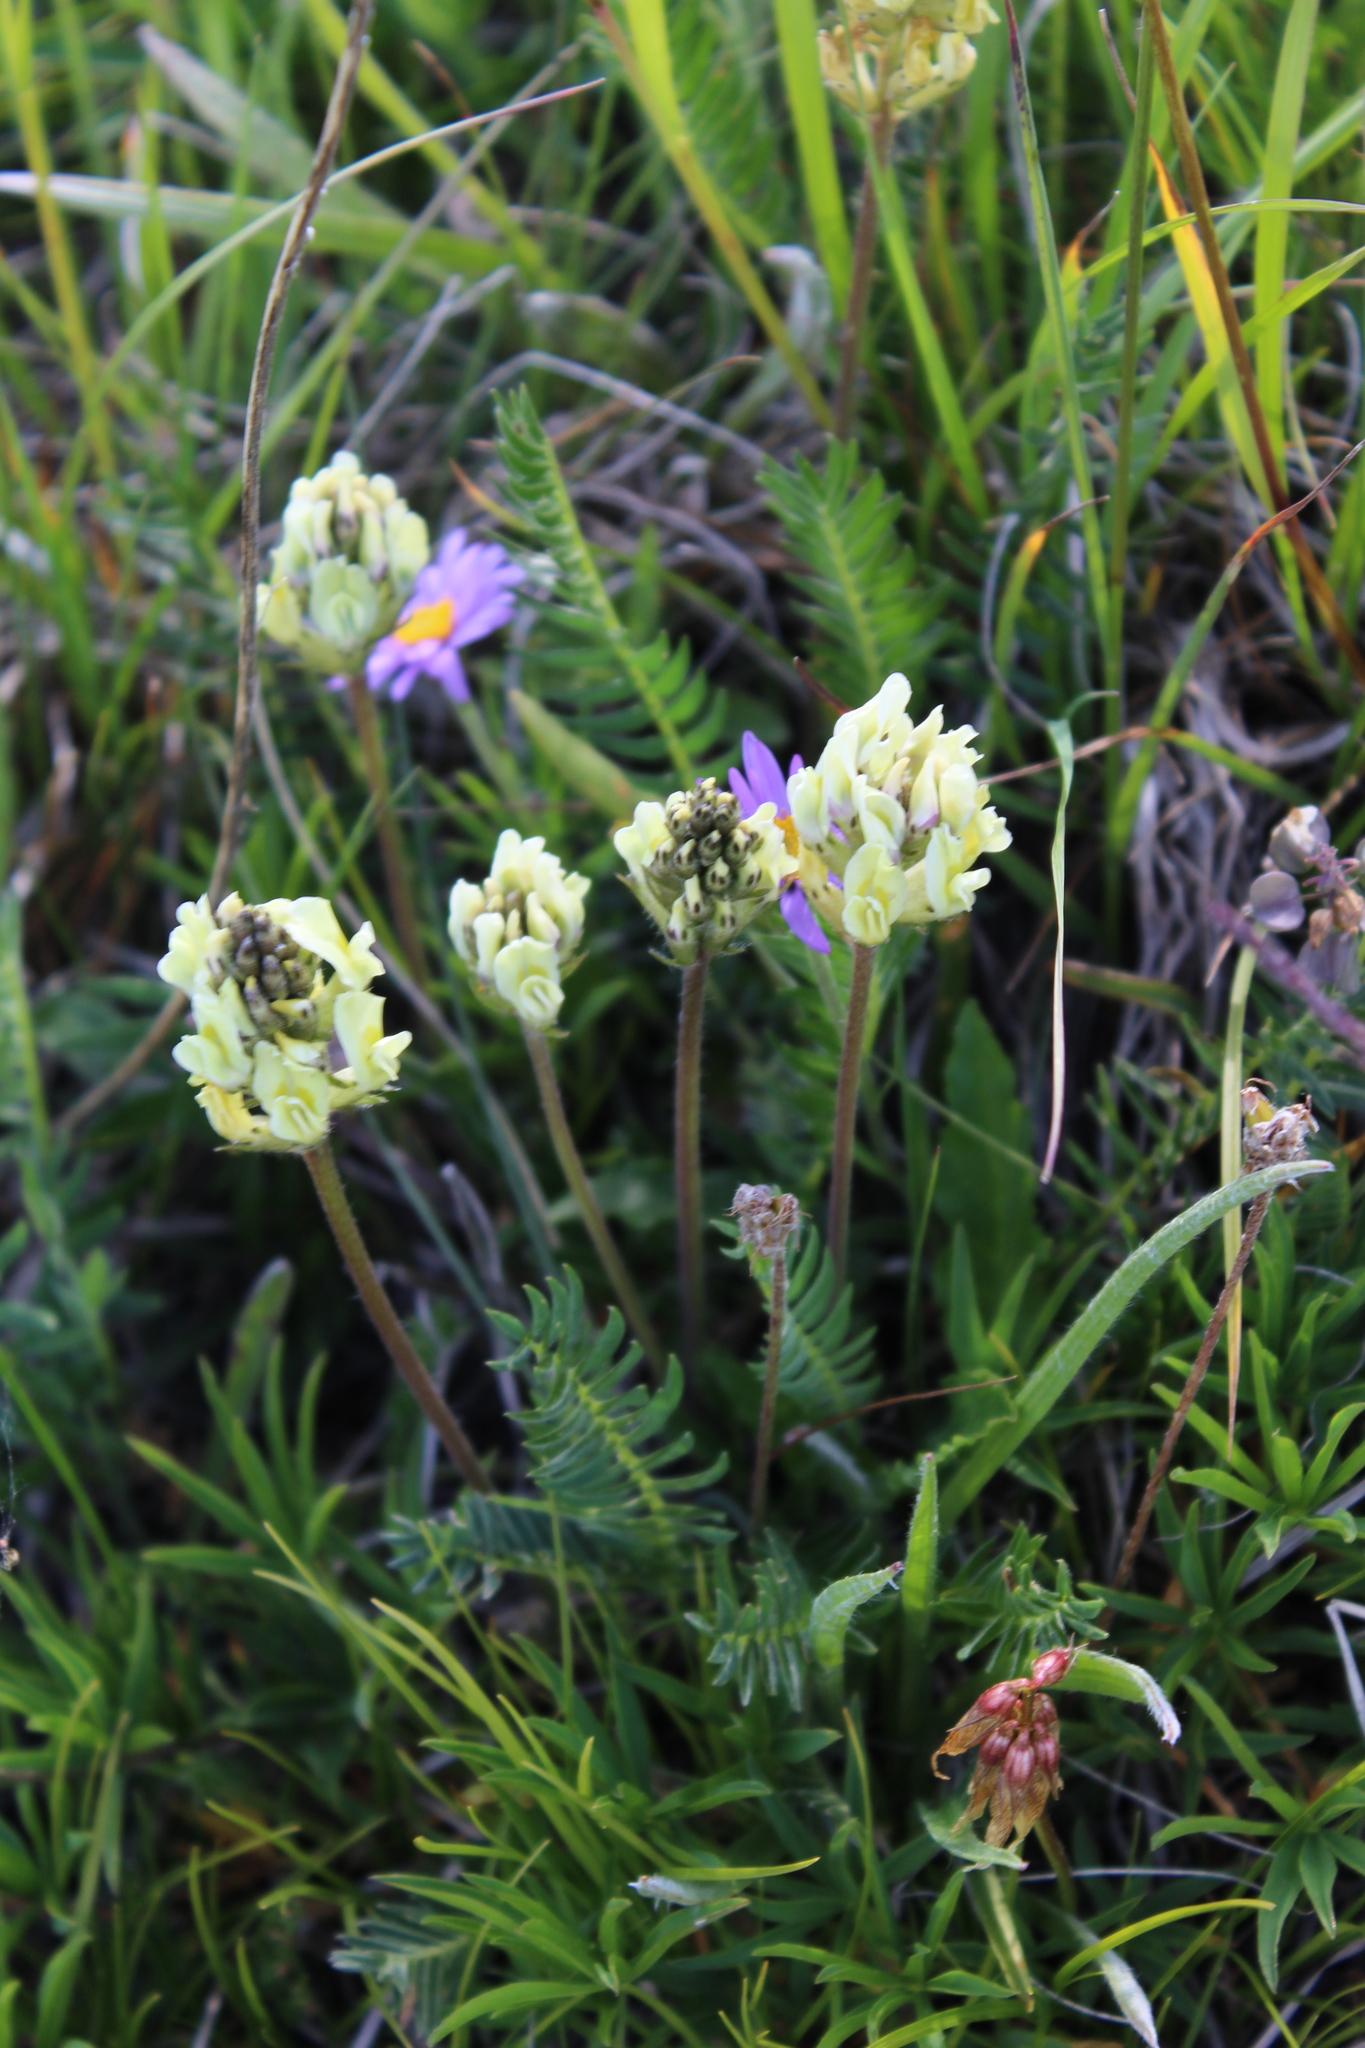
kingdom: Plantae
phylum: Tracheophyta
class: Magnoliopsida
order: Fabales
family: Fabaceae
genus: Oxytropis
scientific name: Oxytropis kubanensis
